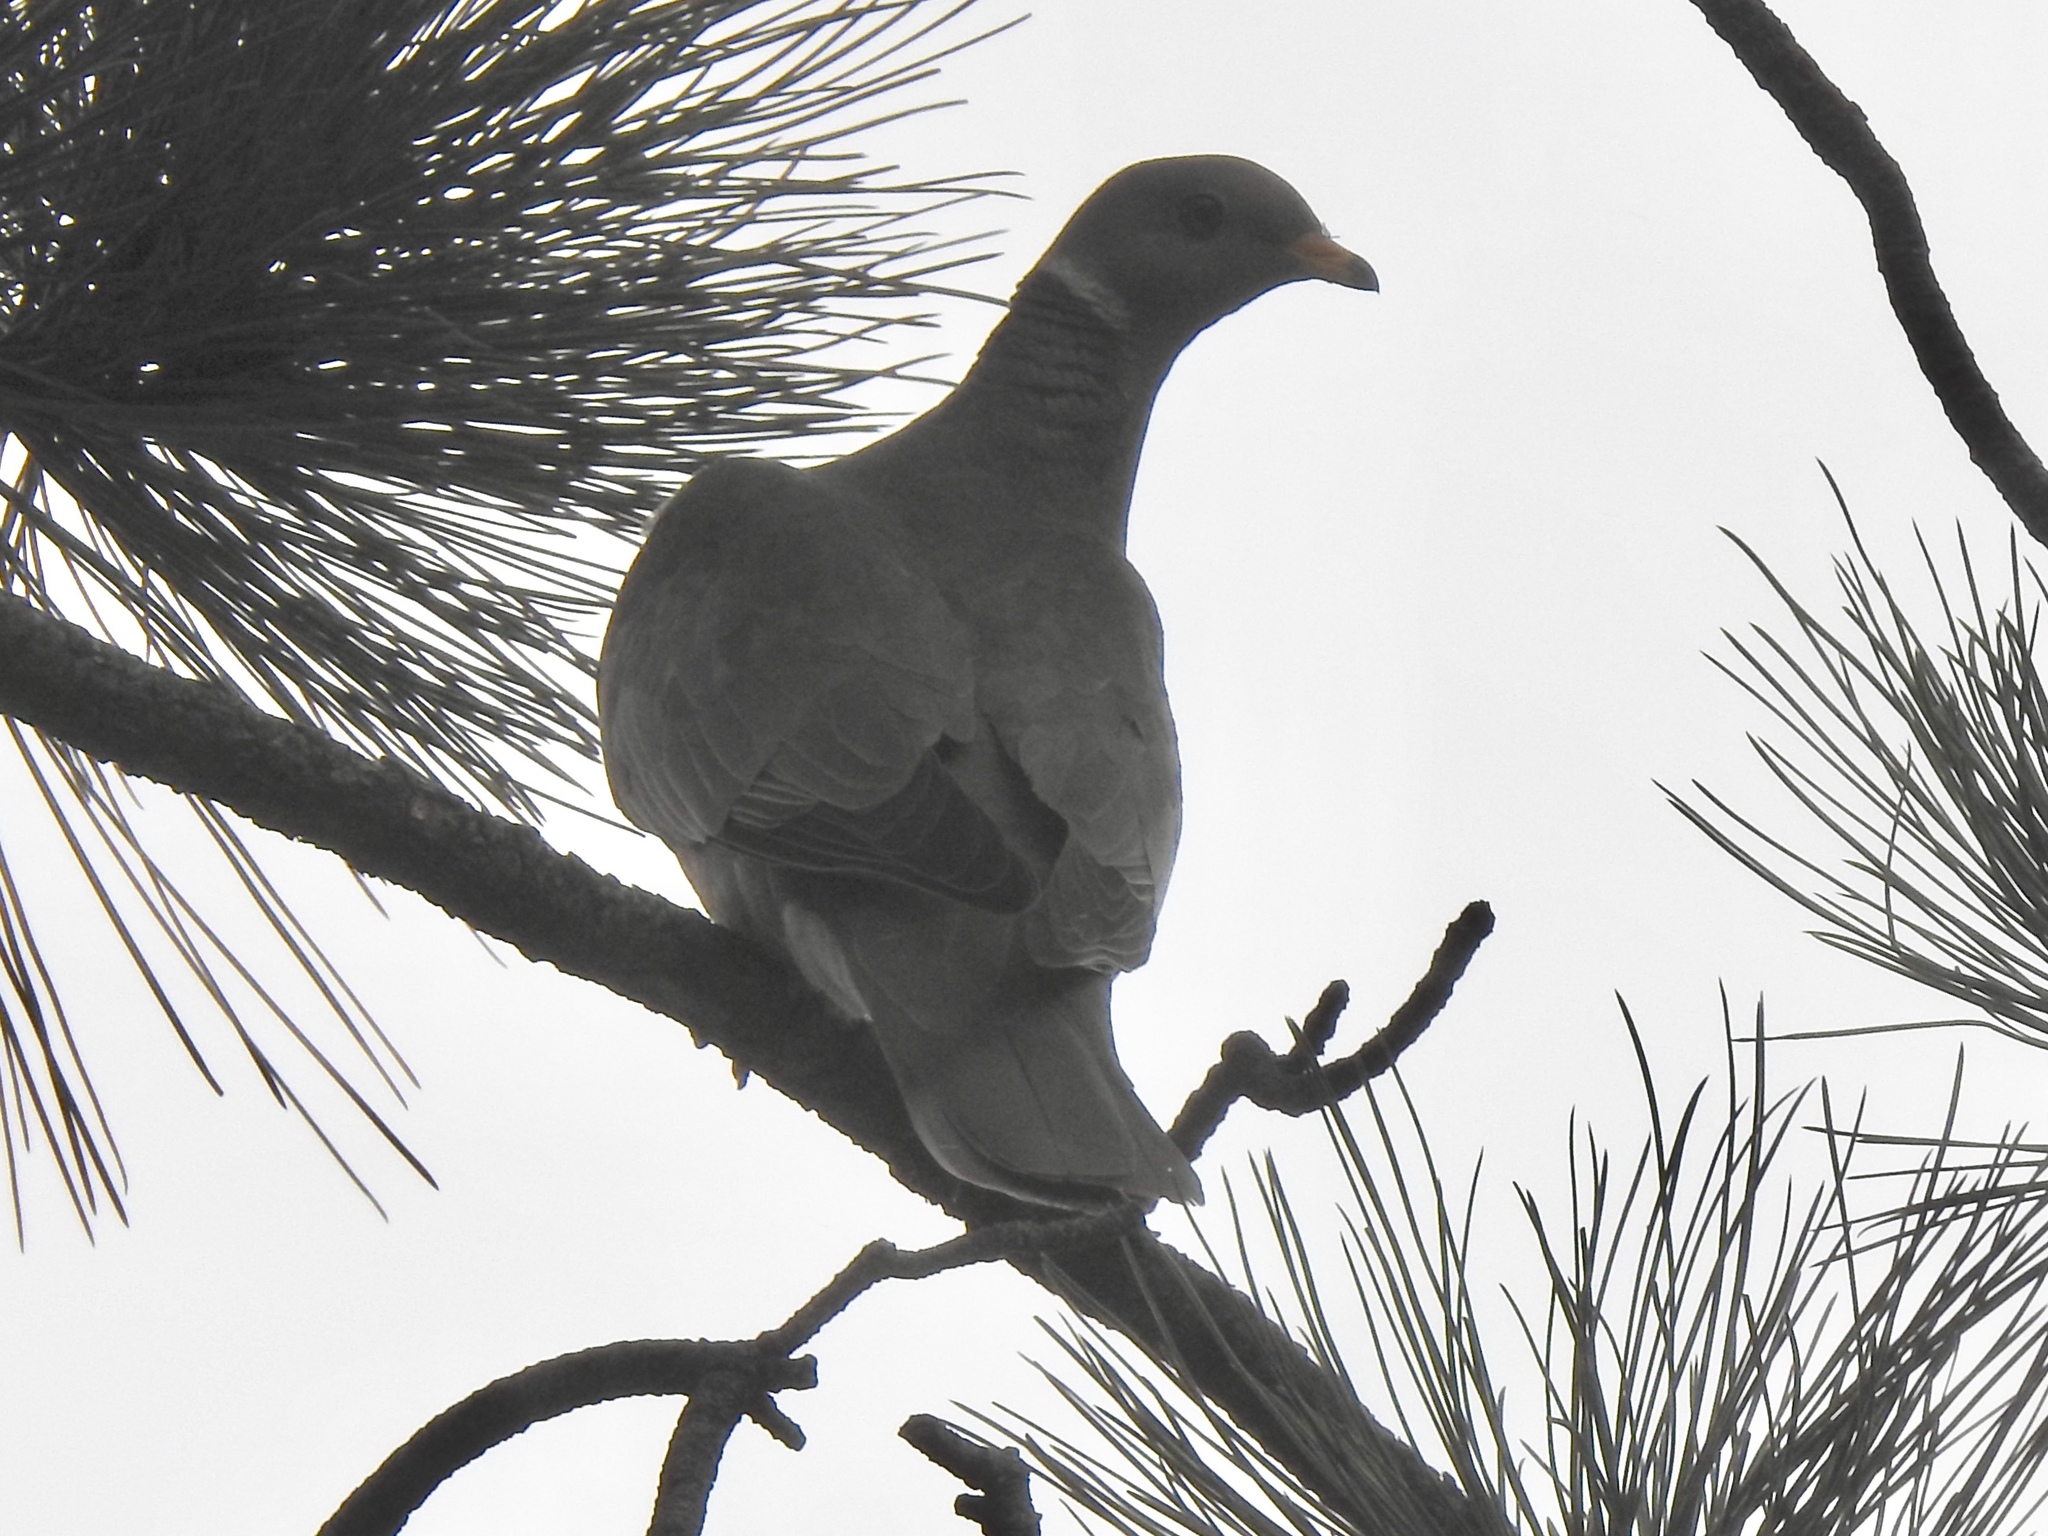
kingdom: Animalia
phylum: Chordata
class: Aves
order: Columbiformes
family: Columbidae
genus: Patagioenas
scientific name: Patagioenas fasciata
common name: Band-tailed pigeon
